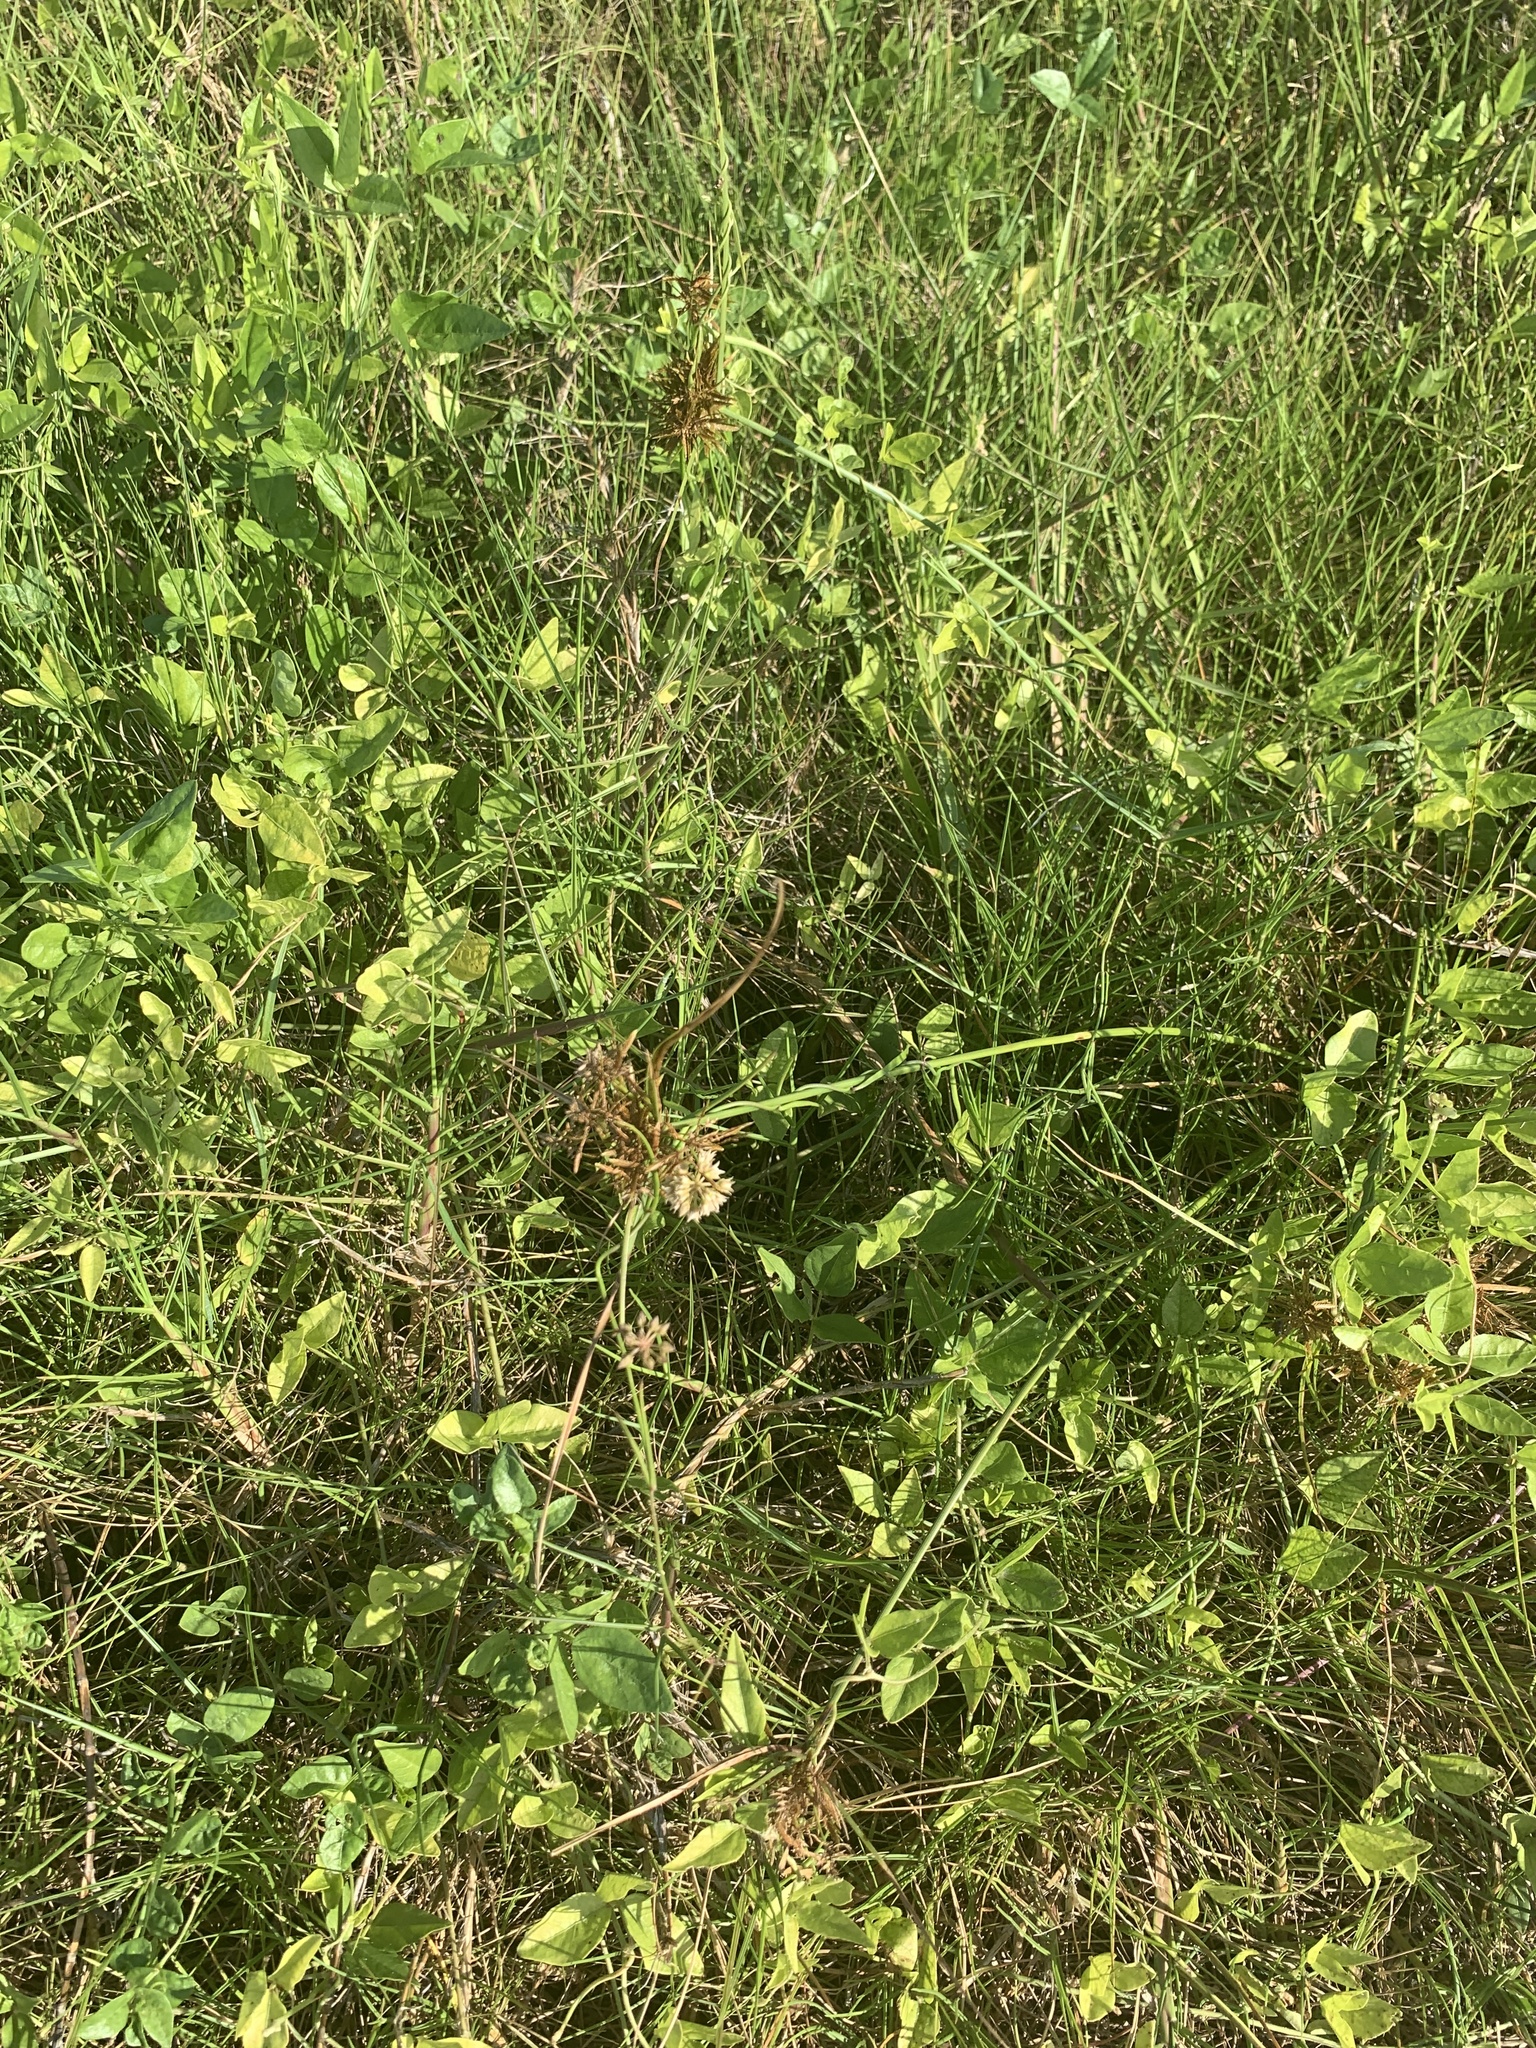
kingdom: Plantae
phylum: Tracheophyta
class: Magnoliopsida
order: Gentianales
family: Apocynaceae
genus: Pattalias
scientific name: Pattalias
